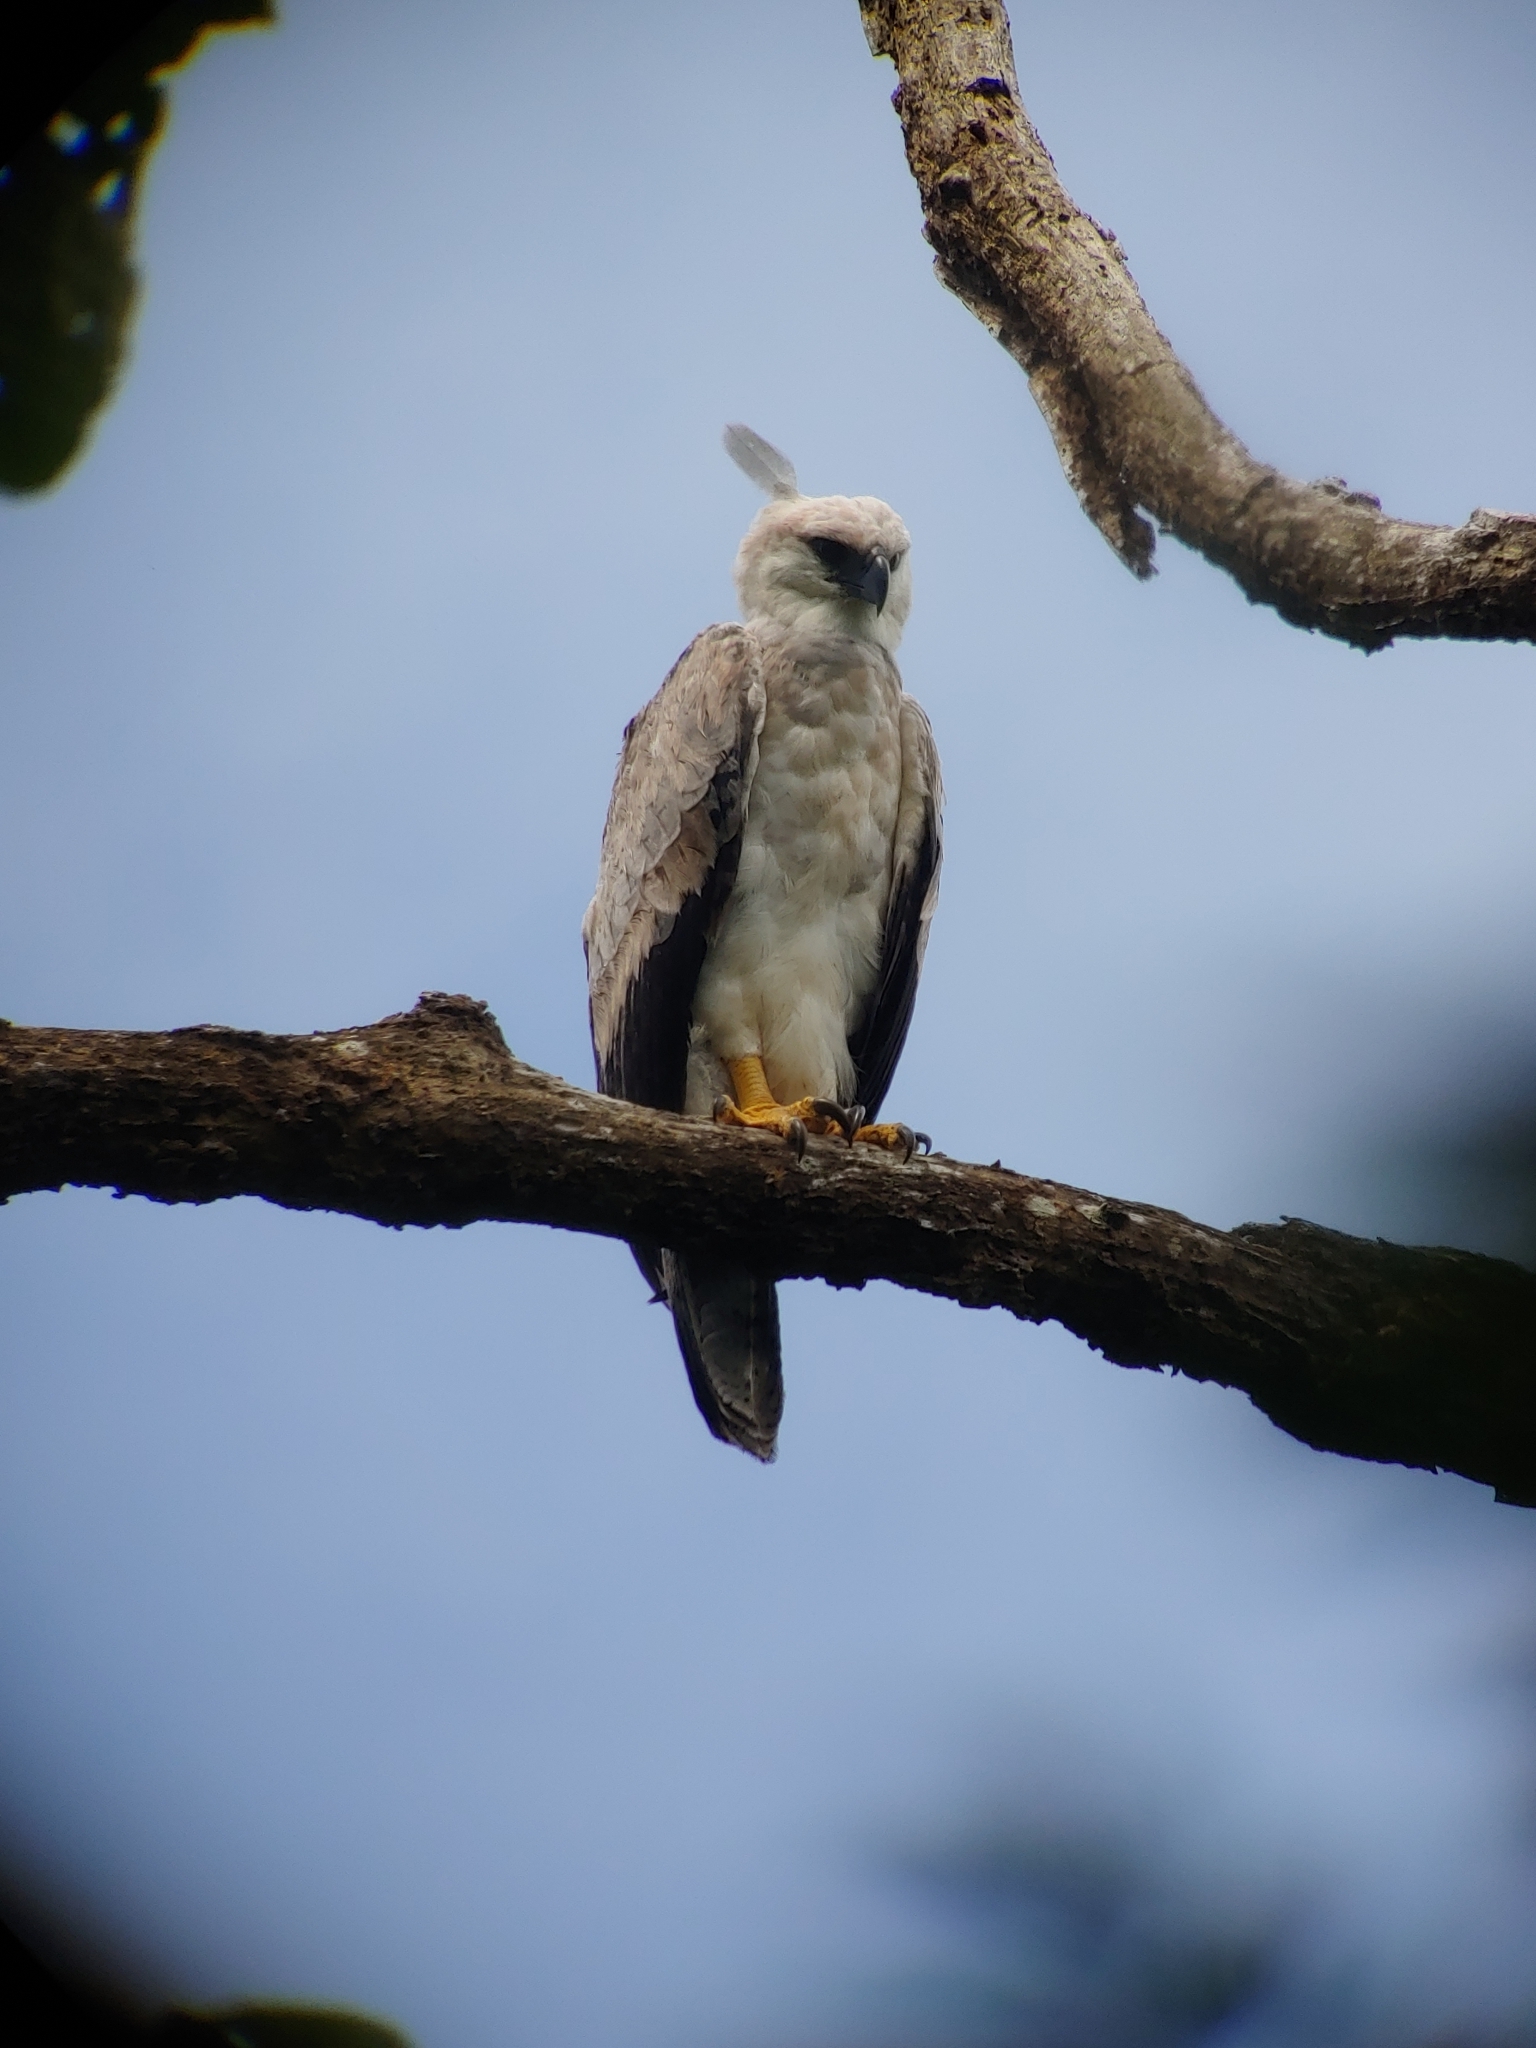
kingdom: Animalia
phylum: Chordata
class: Aves
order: Accipitriformes
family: Accipitridae
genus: Harpia
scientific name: Harpia harpyja
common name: Harpy eagle
